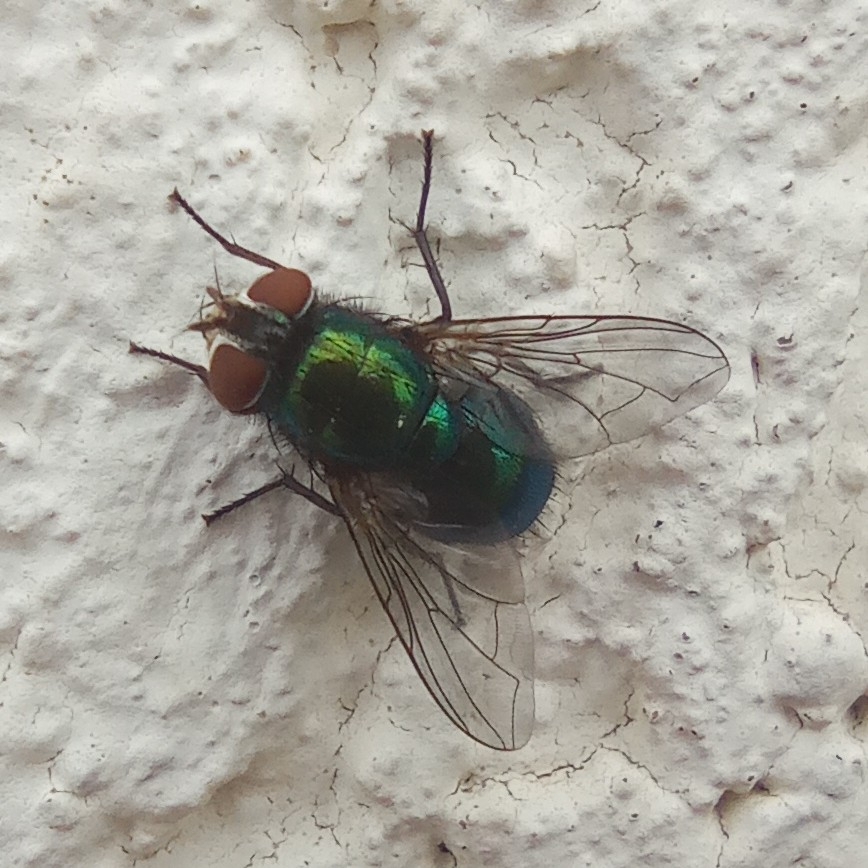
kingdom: Animalia
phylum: Arthropoda
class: Insecta
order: Diptera
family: Calliphoridae
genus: Lucilia
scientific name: Lucilia
